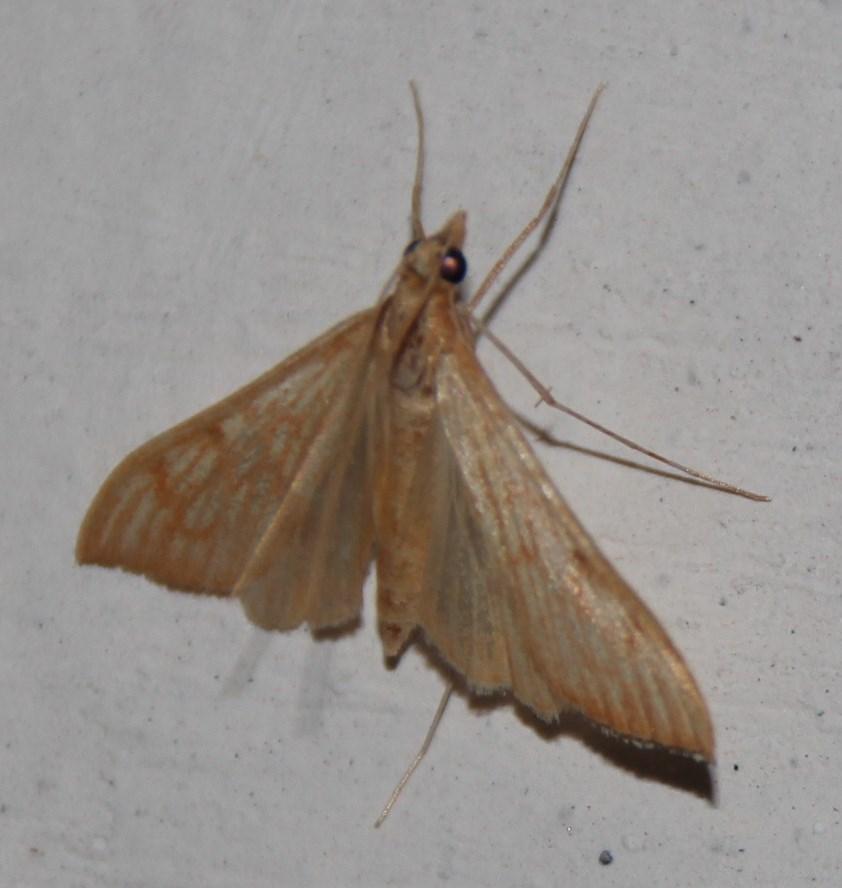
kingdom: Animalia
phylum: Arthropoda
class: Insecta
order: Lepidoptera
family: Crambidae
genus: Antigastra
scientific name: Antigastra catalaunalis
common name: Spanish dot
